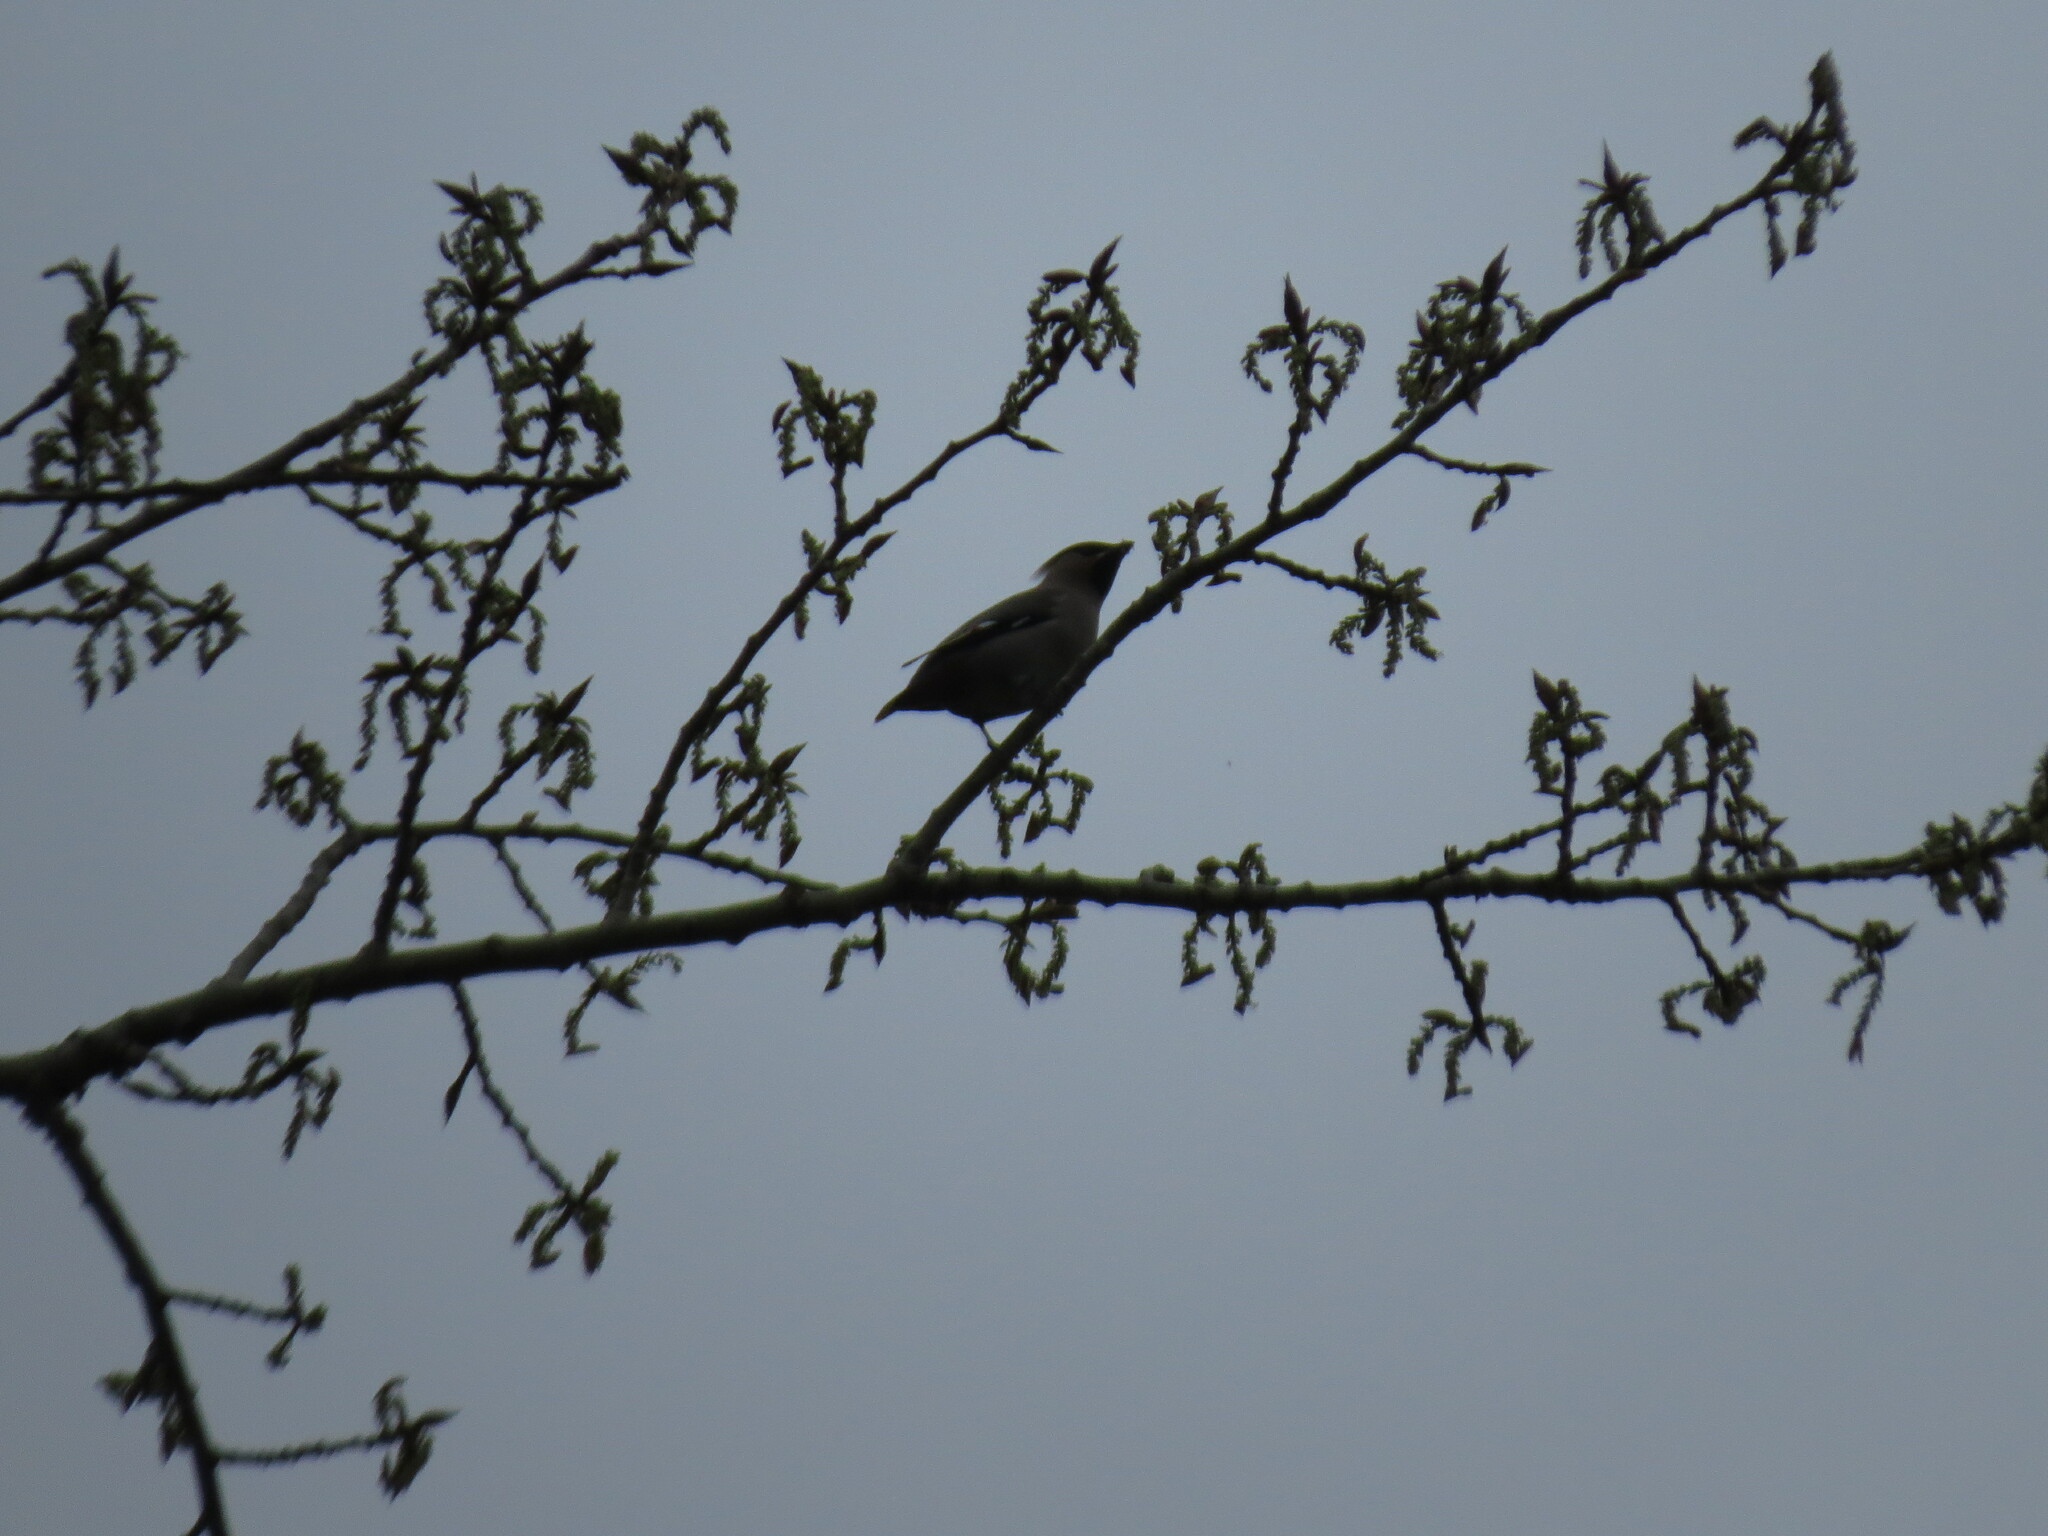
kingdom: Animalia
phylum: Chordata
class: Aves
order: Passeriformes
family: Bombycillidae
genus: Bombycilla
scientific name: Bombycilla garrulus
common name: Bohemian waxwing
